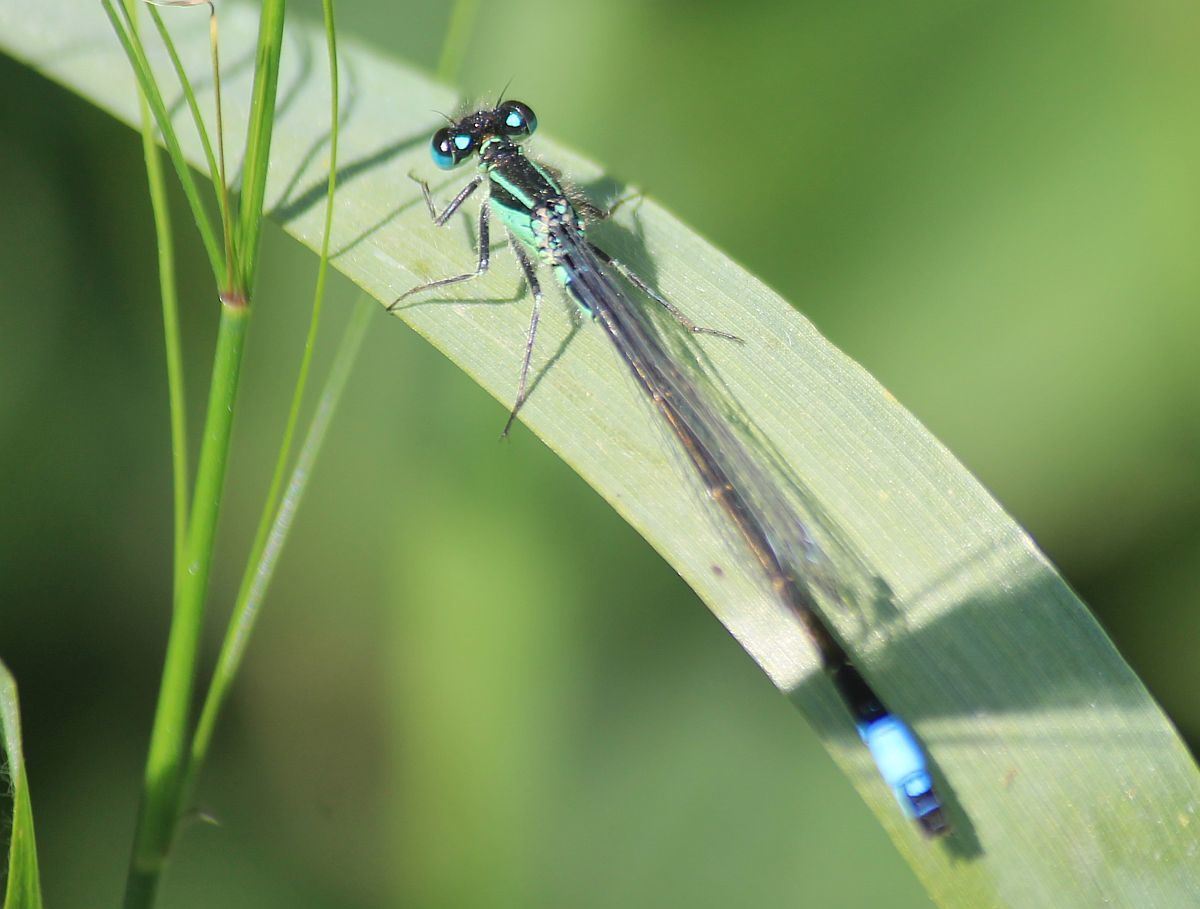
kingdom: Animalia
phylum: Arthropoda
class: Insecta
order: Odonata
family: Coenagrionidae
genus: Ischnura
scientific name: Ischnura elegans
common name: Blue-tailed damselfly
